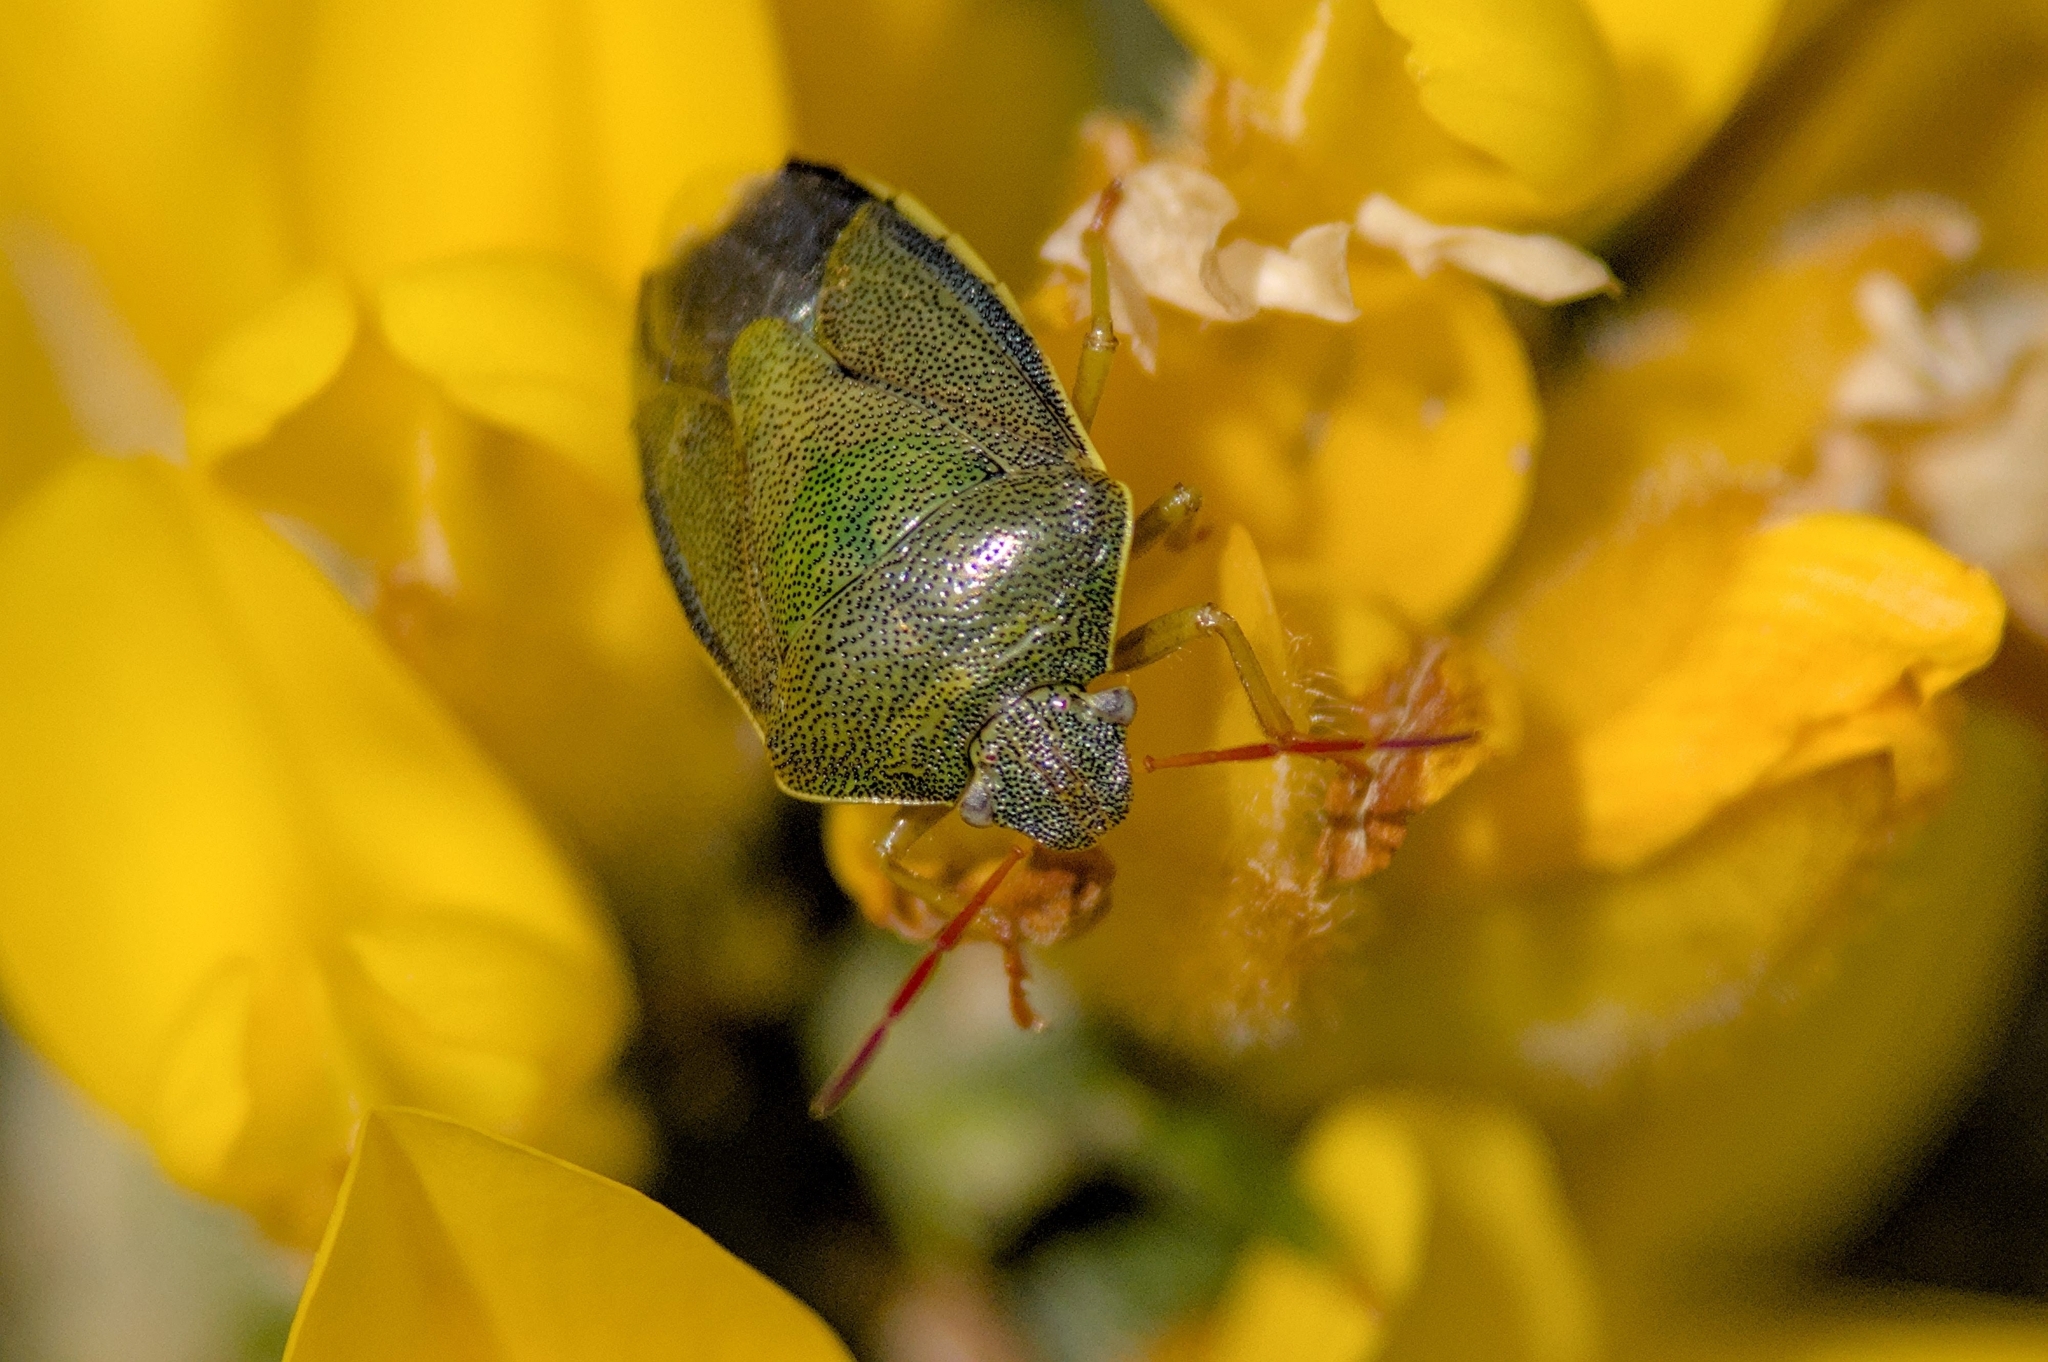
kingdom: Animalia
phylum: Arthropoda
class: Insecta
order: Hemiptera
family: Pentatomidae
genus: Piezodorus
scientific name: Piezodorus lituratus
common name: Stink bug
